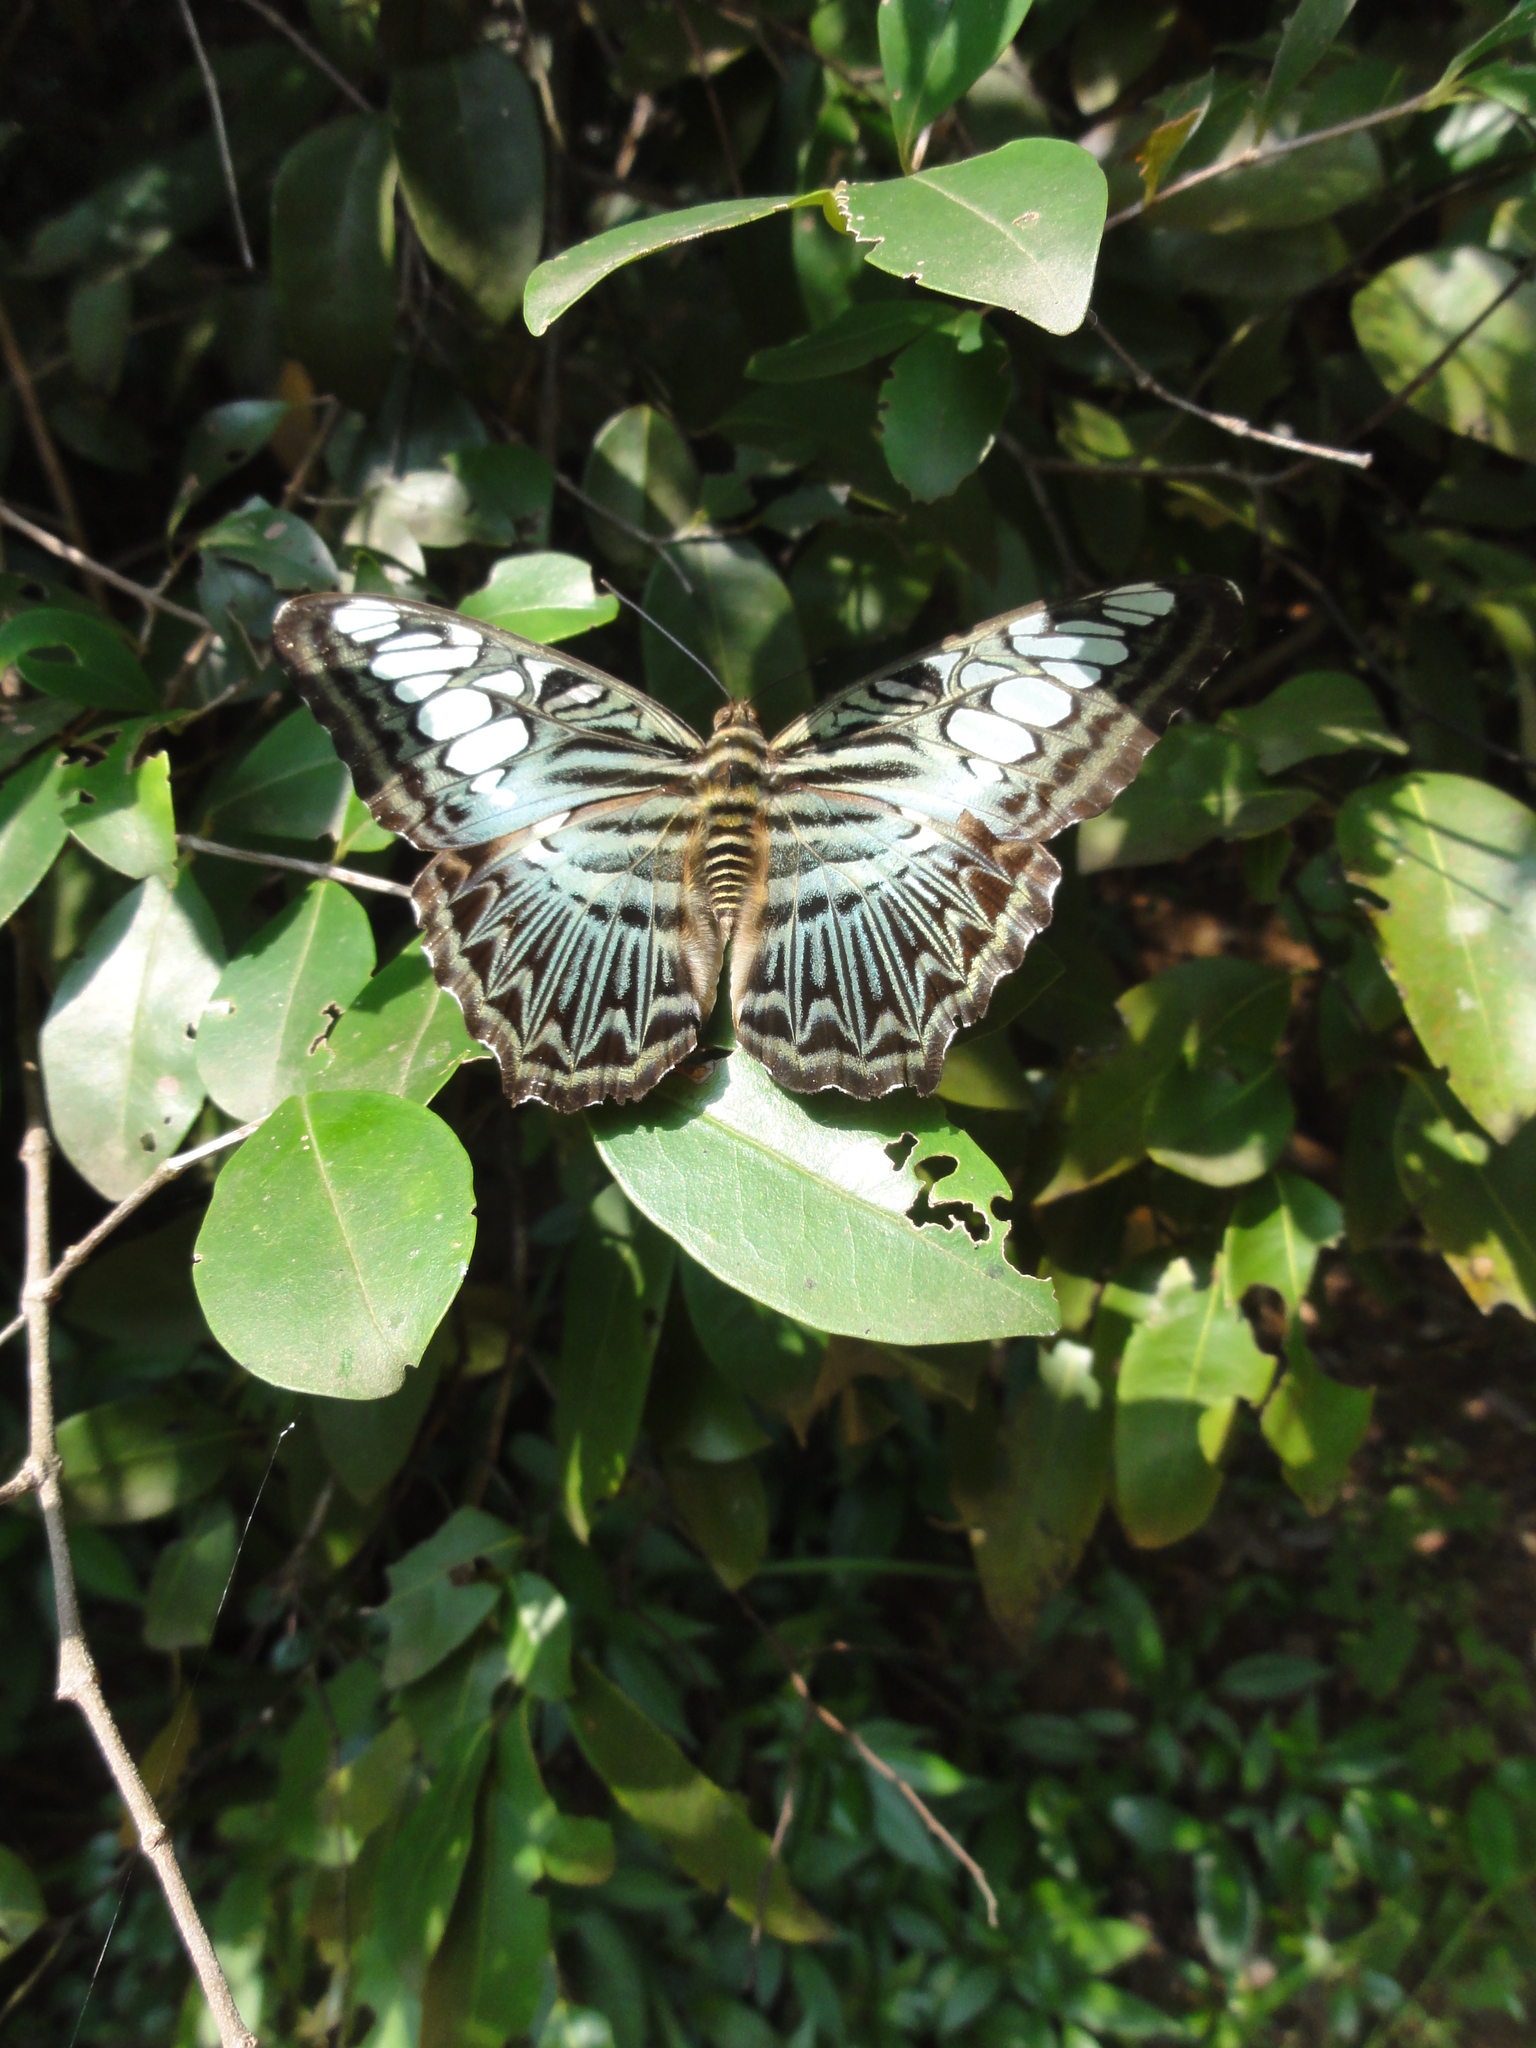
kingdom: Animalia
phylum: Arthropoda
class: Insecta
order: Lepidoptera
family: Nymphalidae
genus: Kallima
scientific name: Kallima sylvia
